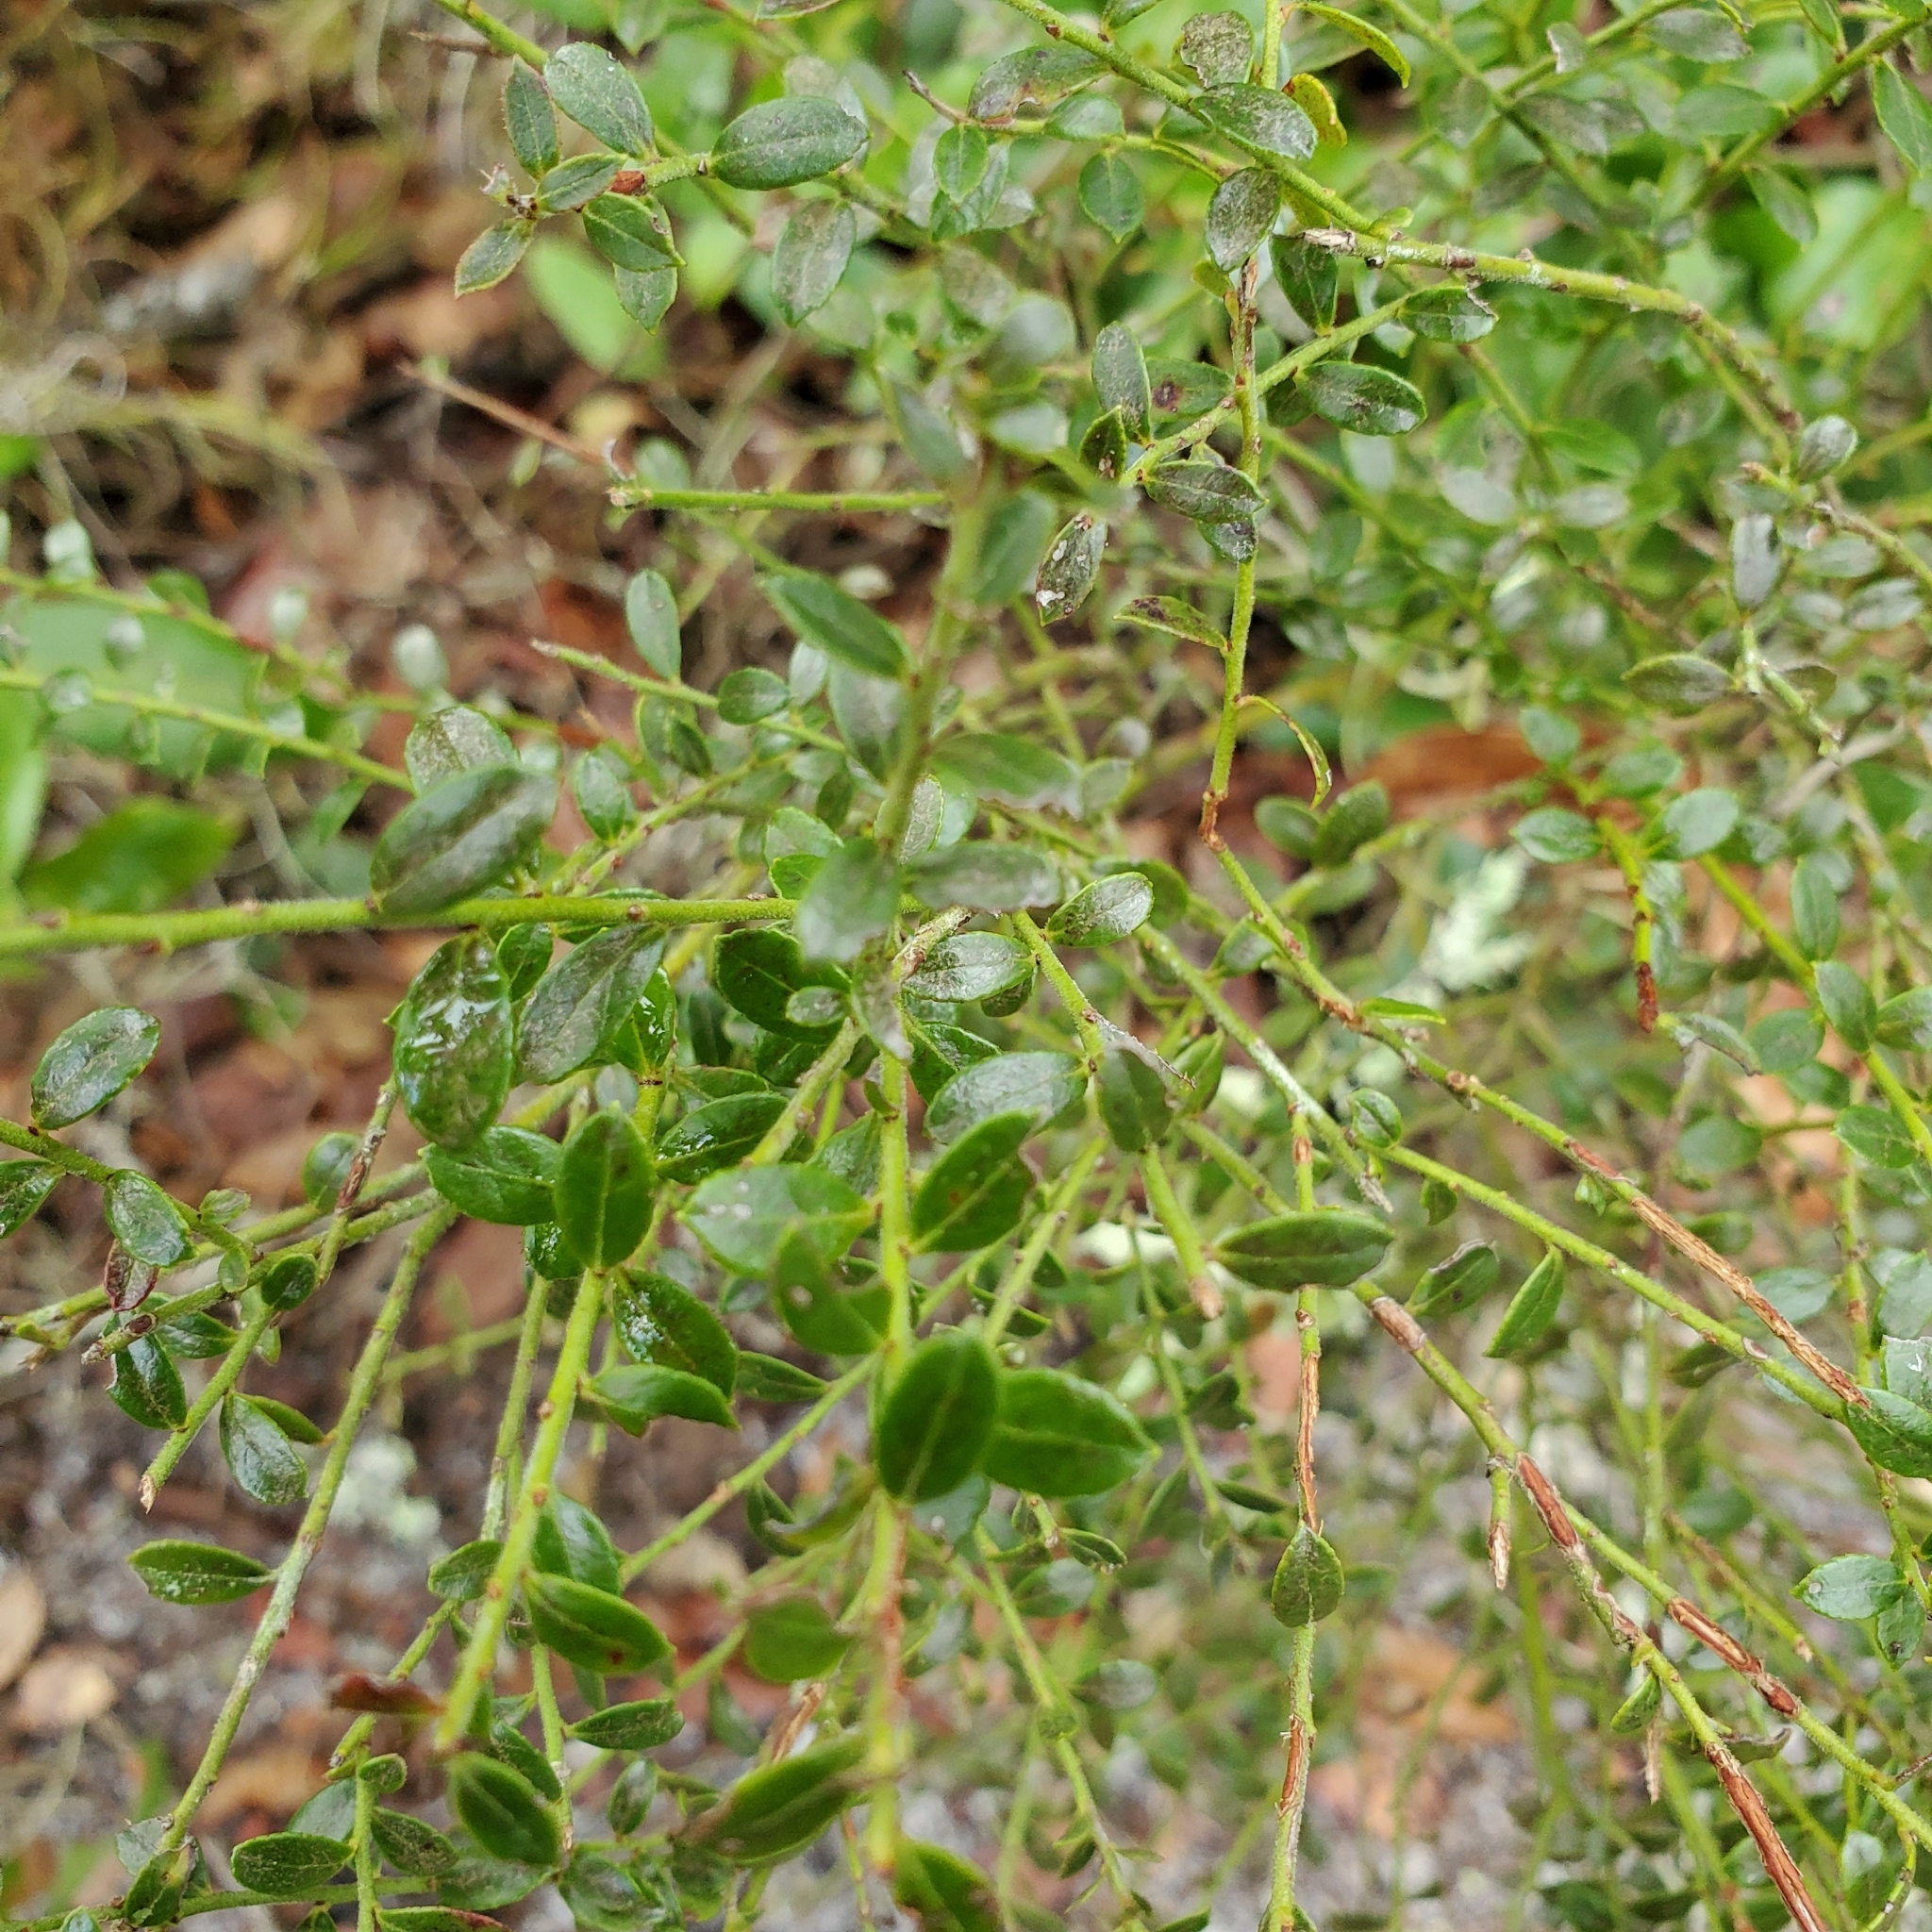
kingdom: Plantae
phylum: Tracheophyta
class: Magnoliopsida
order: Ericales
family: Ericaceae
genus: Vaccinium
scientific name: Vaccinium myrsinites
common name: Evergreen blueberry
